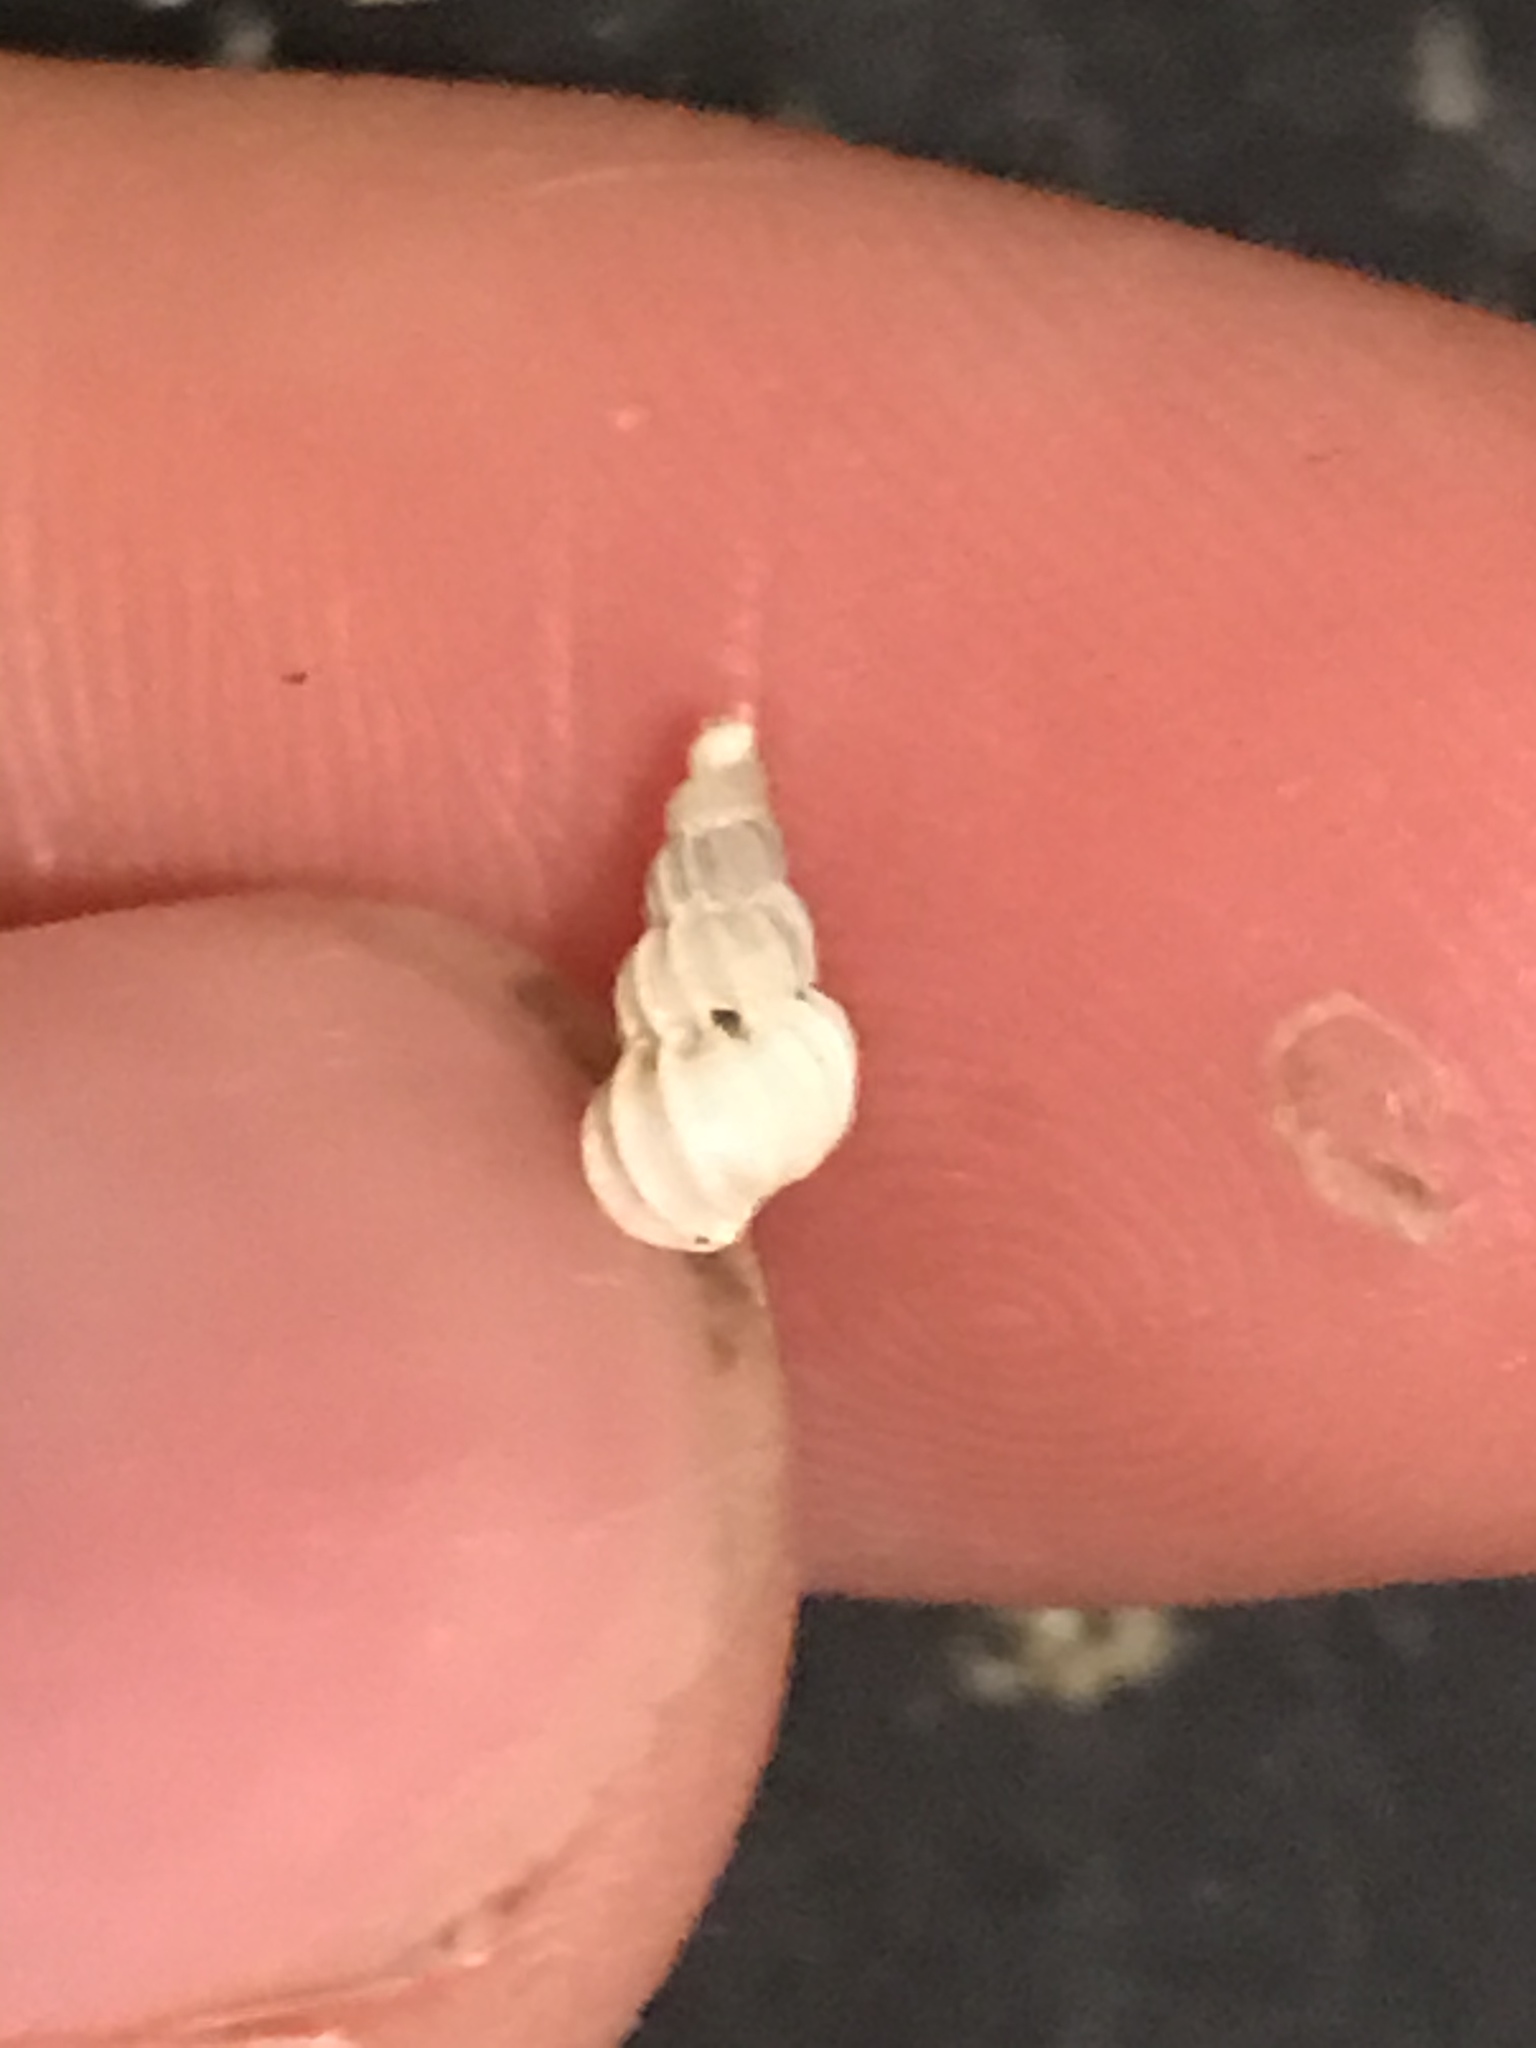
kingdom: Animalia
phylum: Mollusca
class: Gastropoda
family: Epitoniidae
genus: Epitonium
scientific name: Epitonium tinctum
